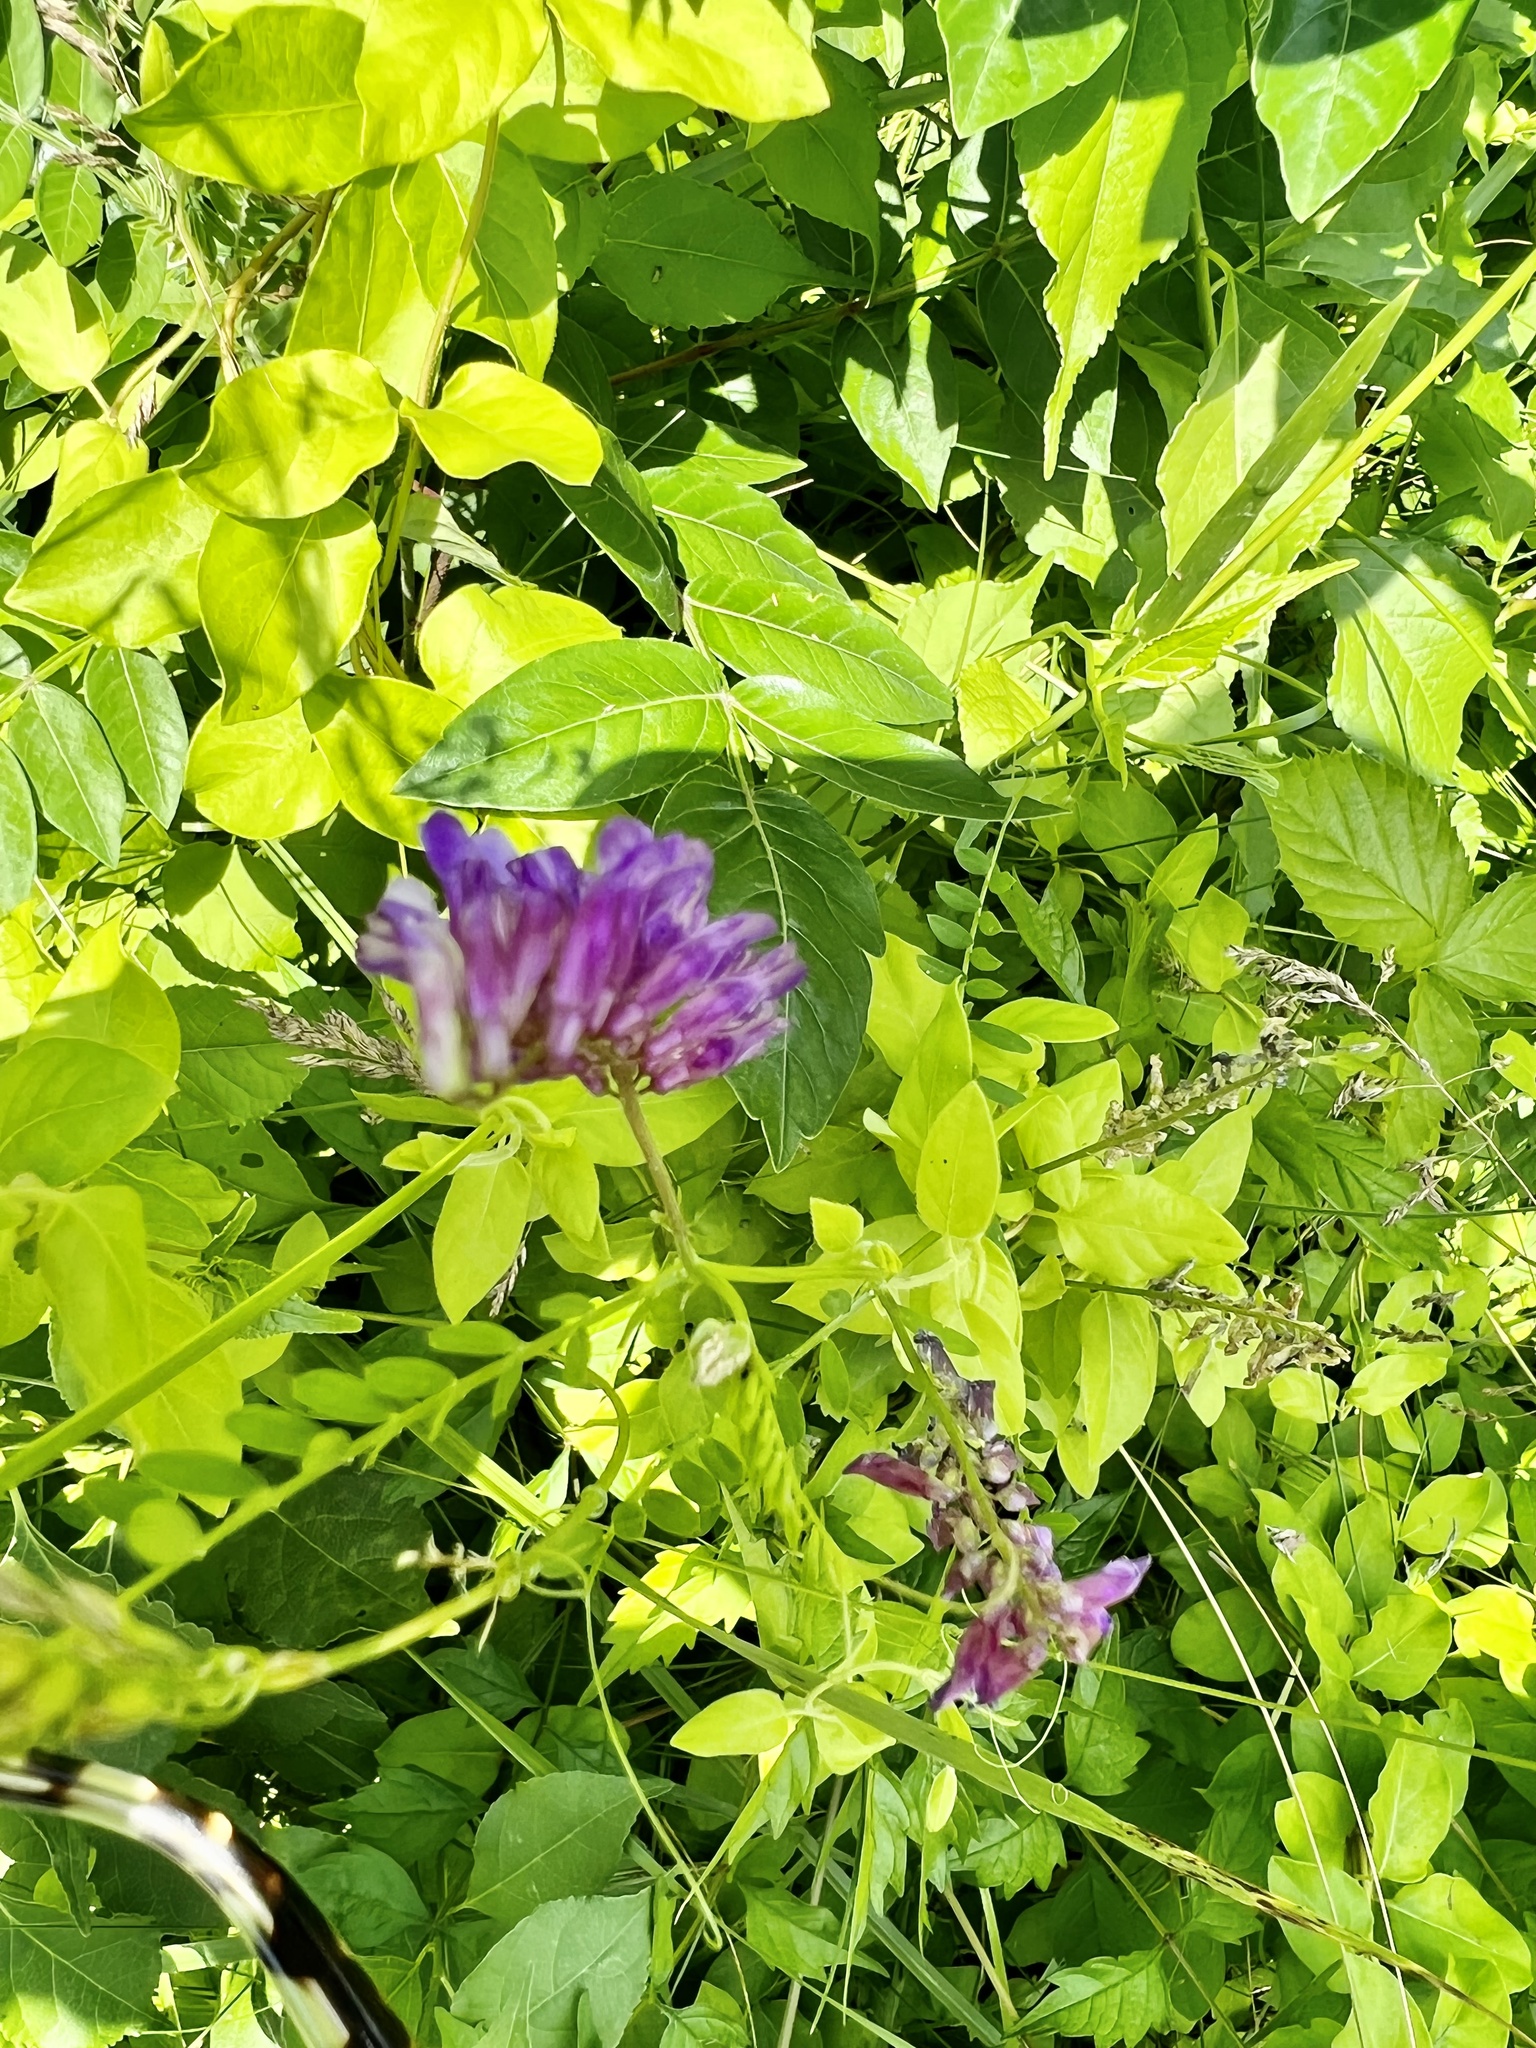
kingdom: Plantae
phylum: Tracheophyta
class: Magnoliopsida
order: Fabales
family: Fabaceae
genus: Vicia
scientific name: Vicia villosa
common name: Fodder vetch
